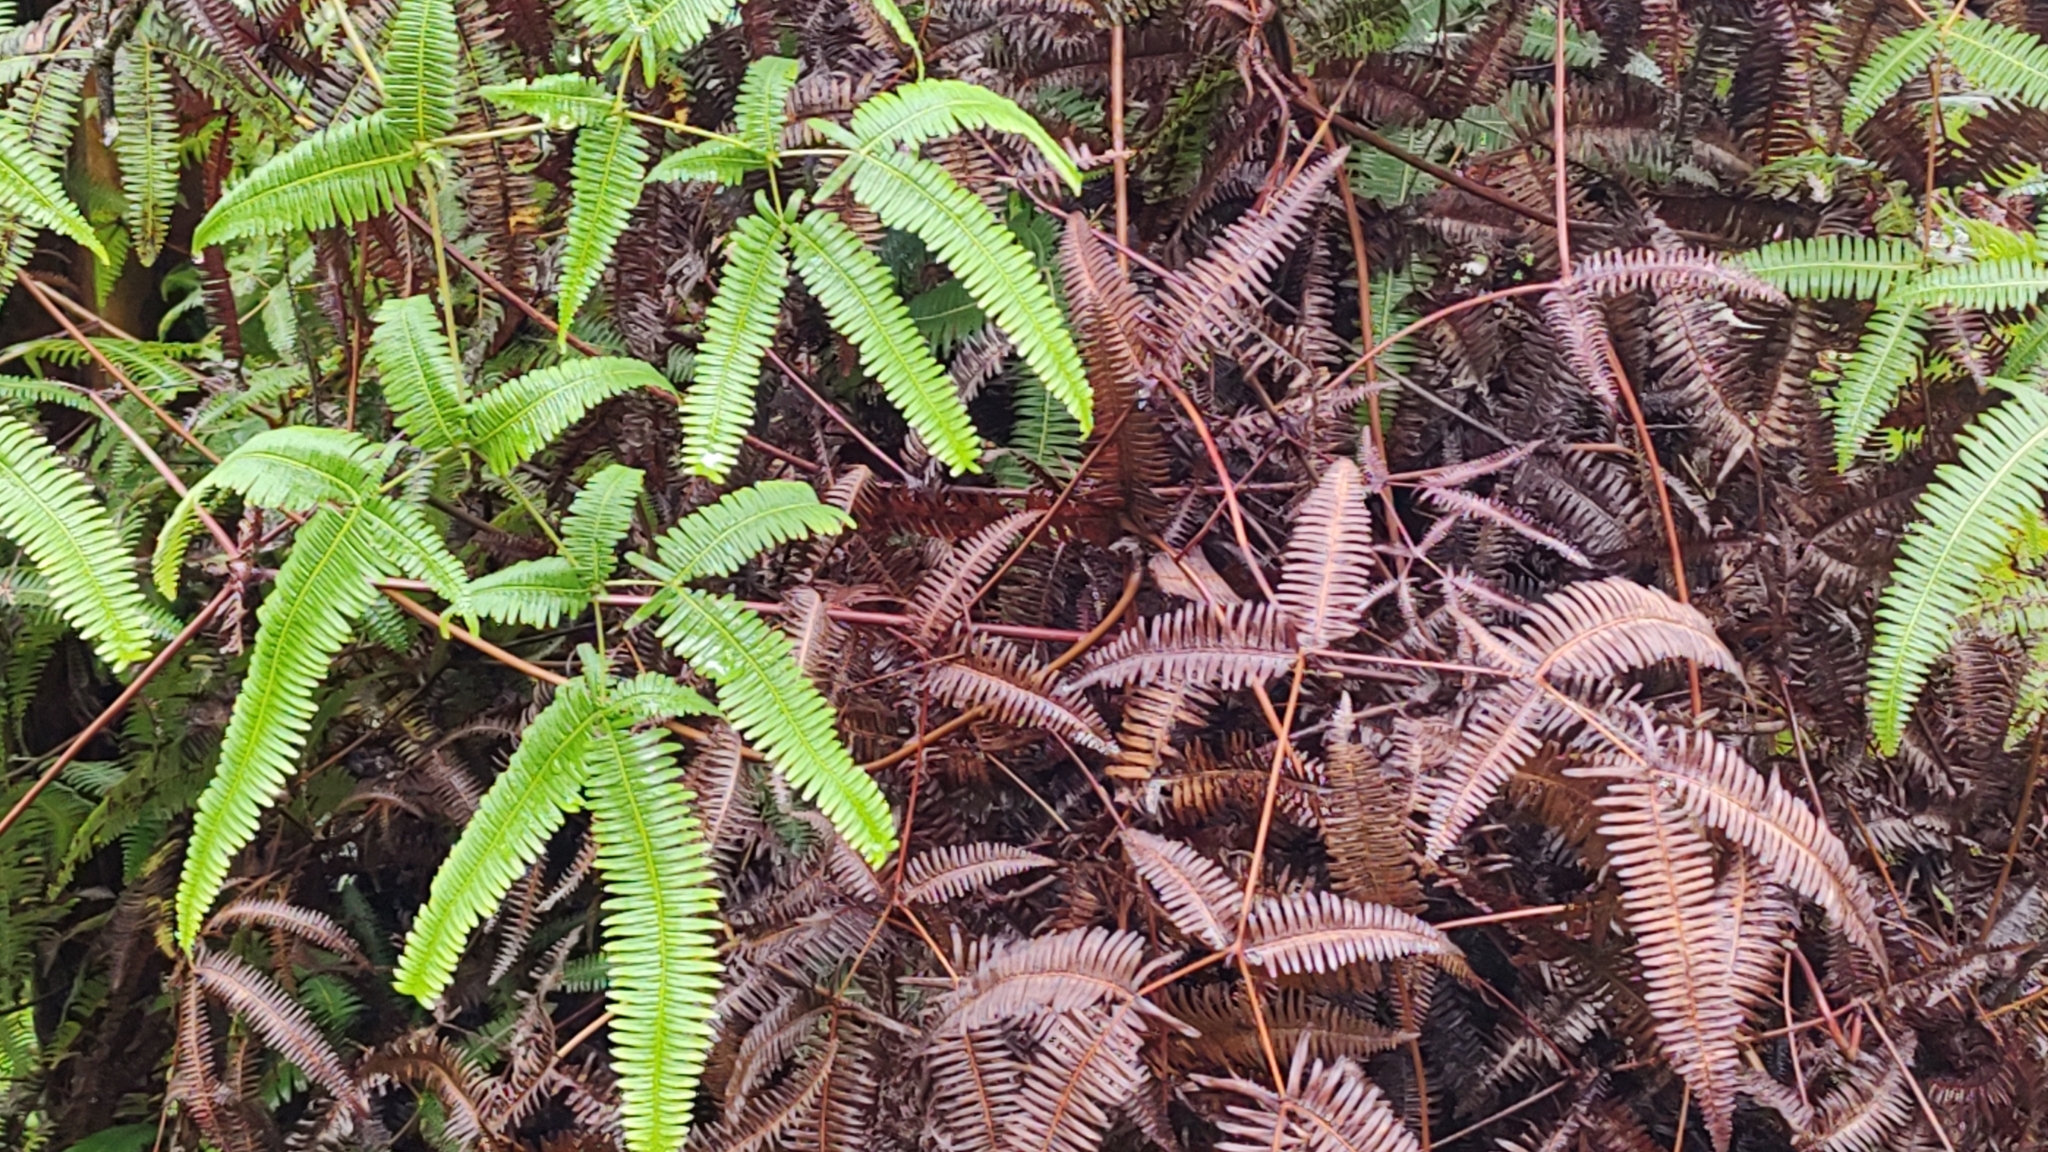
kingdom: Plantae
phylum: Tracheophyta
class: Polypodiopsida
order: Gleicheniales
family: Gleicheniaceae
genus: Dicranopteris
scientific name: Dicranopteris linearis
